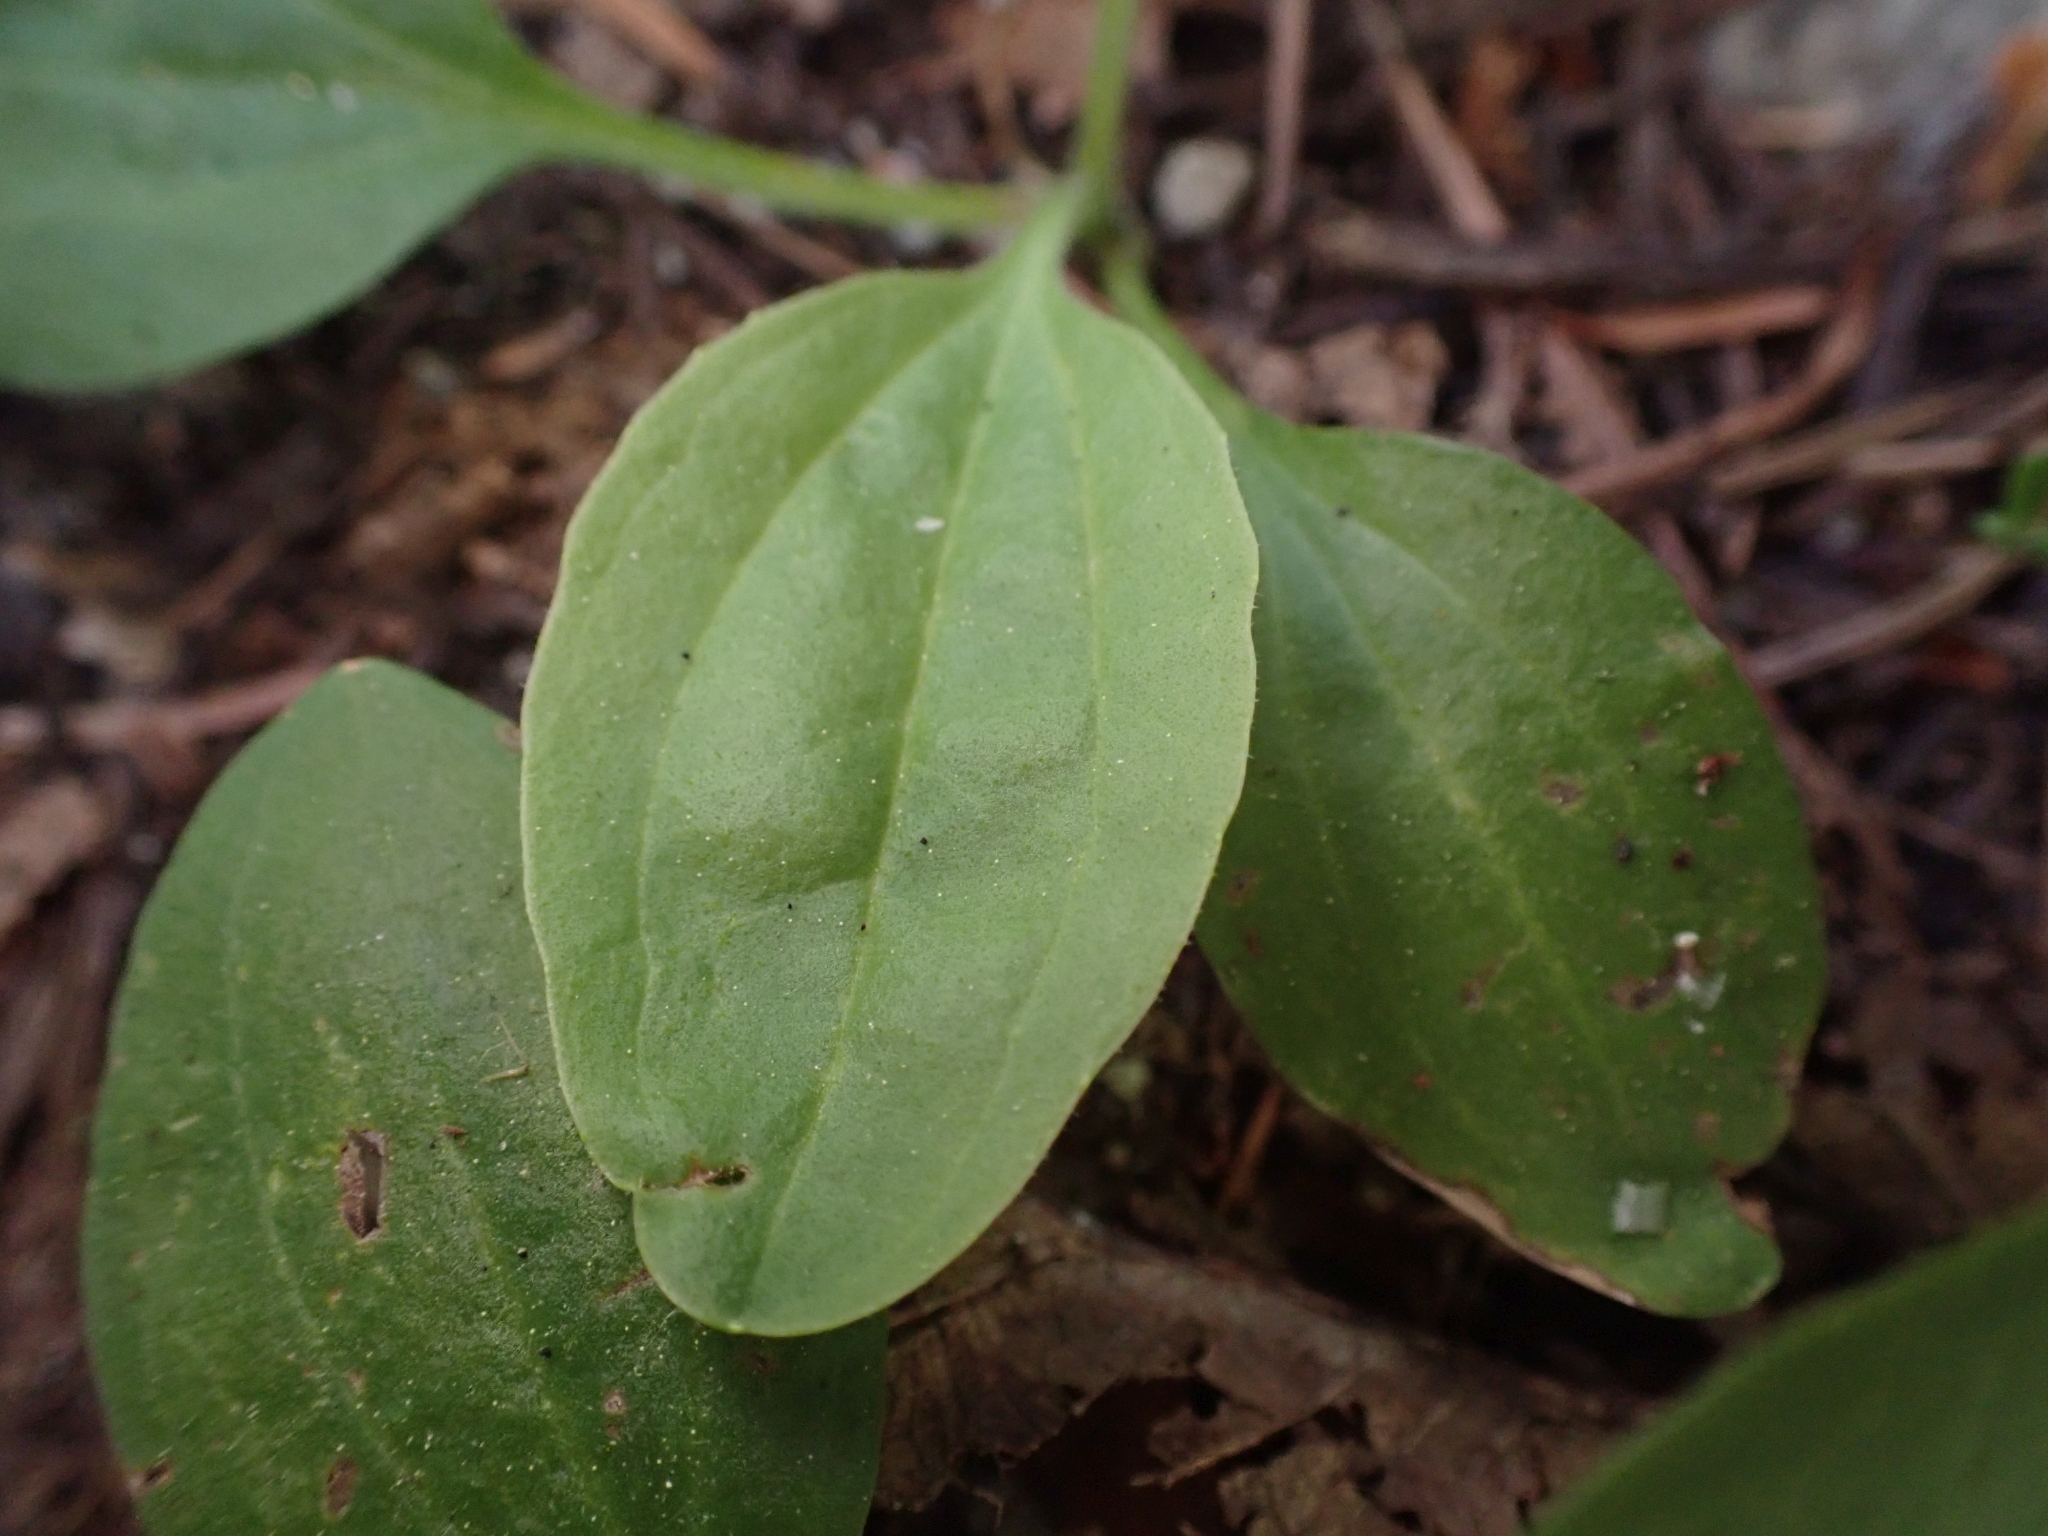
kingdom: Plantae
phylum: Tracheophyta
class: Magnoliopsida
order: Lamiales
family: Plantaginaceae
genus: Plantago
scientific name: Plantago major
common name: Common plantain
